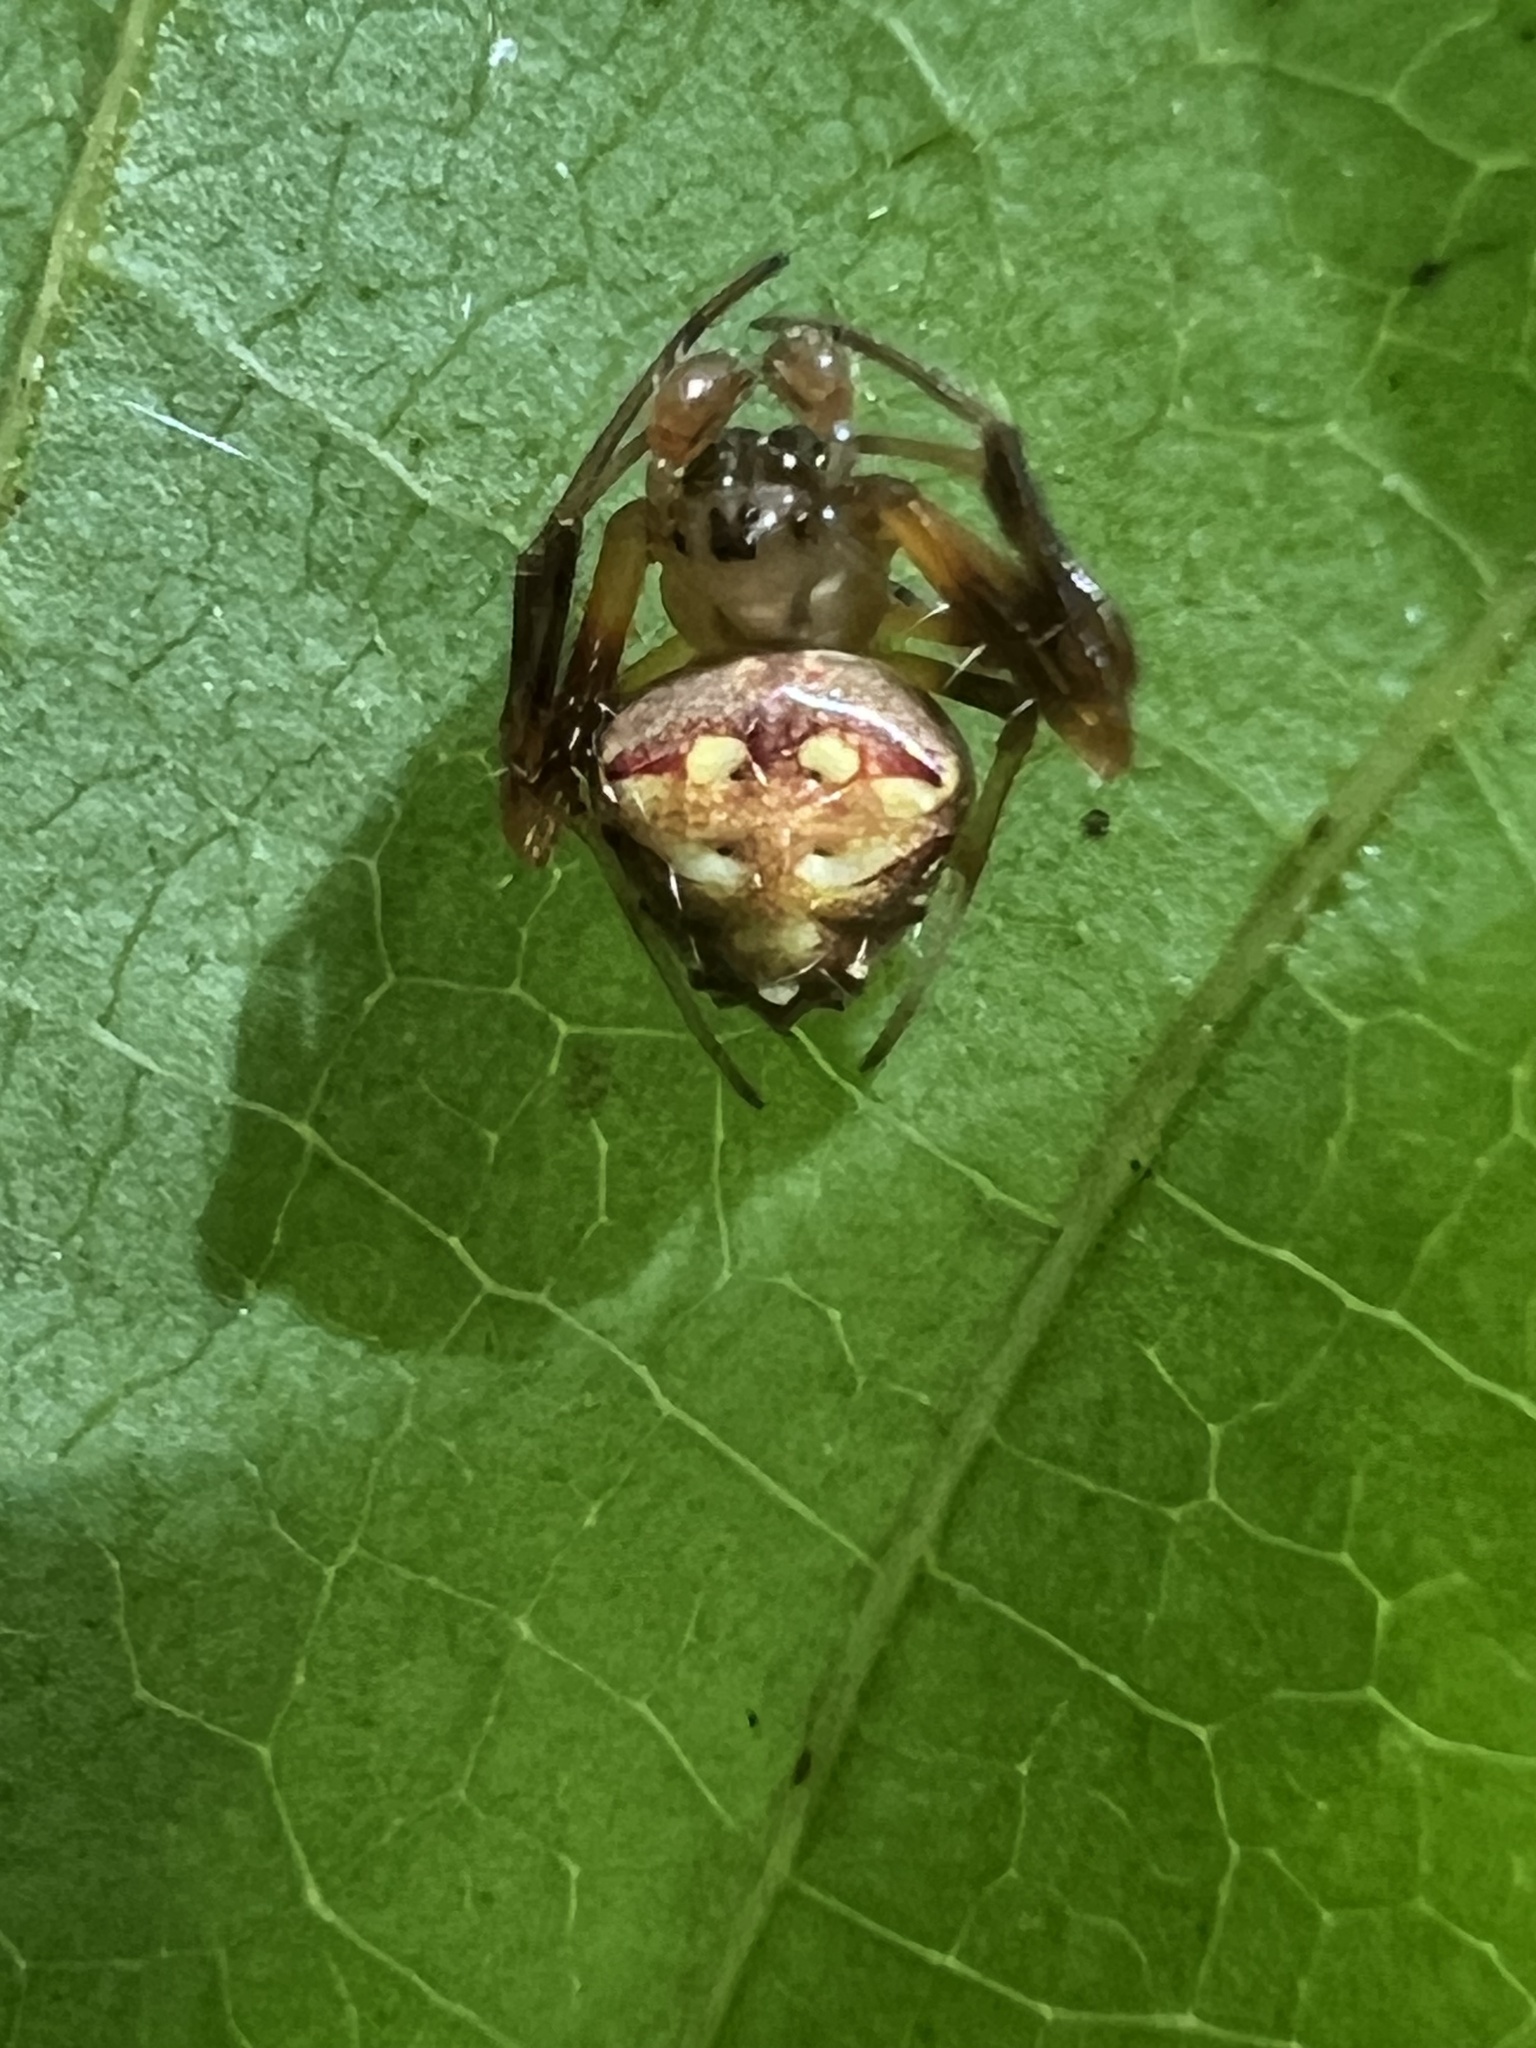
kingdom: Animalia
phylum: Arthropoda
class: Arachnida
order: Araneae
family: Araneidae
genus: Verrucosa
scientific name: Verrucosa arenata
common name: Orb weavers
